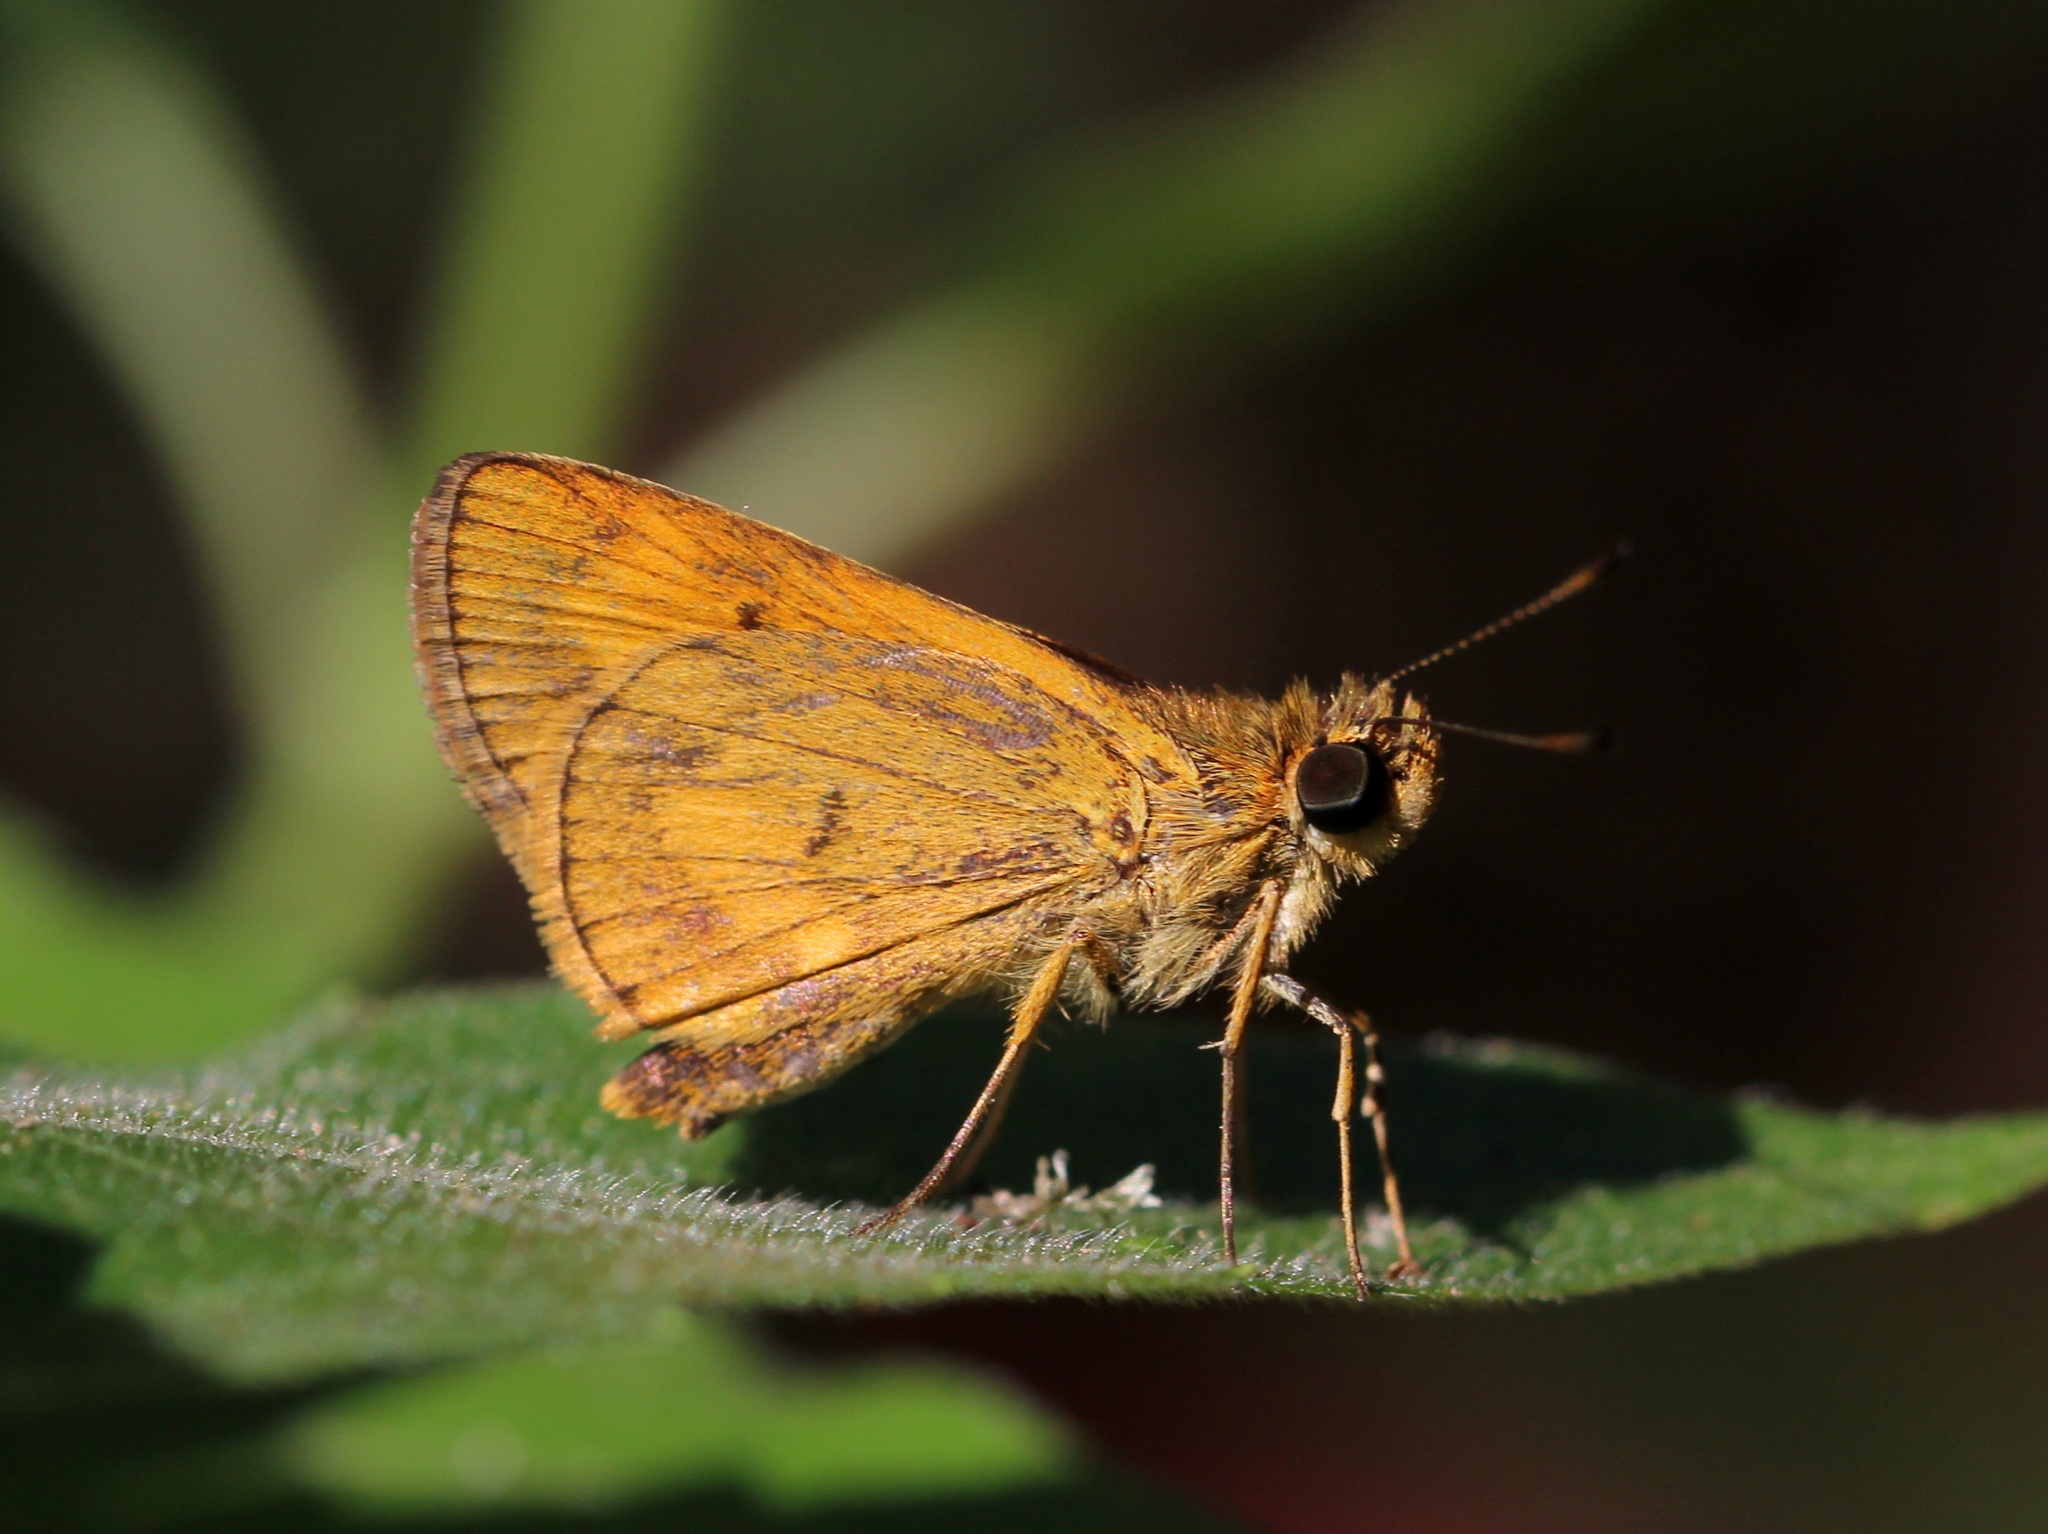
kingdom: Animalia
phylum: Arthropoda
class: Insecta
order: Lepidoptera
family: Hesperiidae
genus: Oriens
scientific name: Oriens goloides
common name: Smaller dartlet
